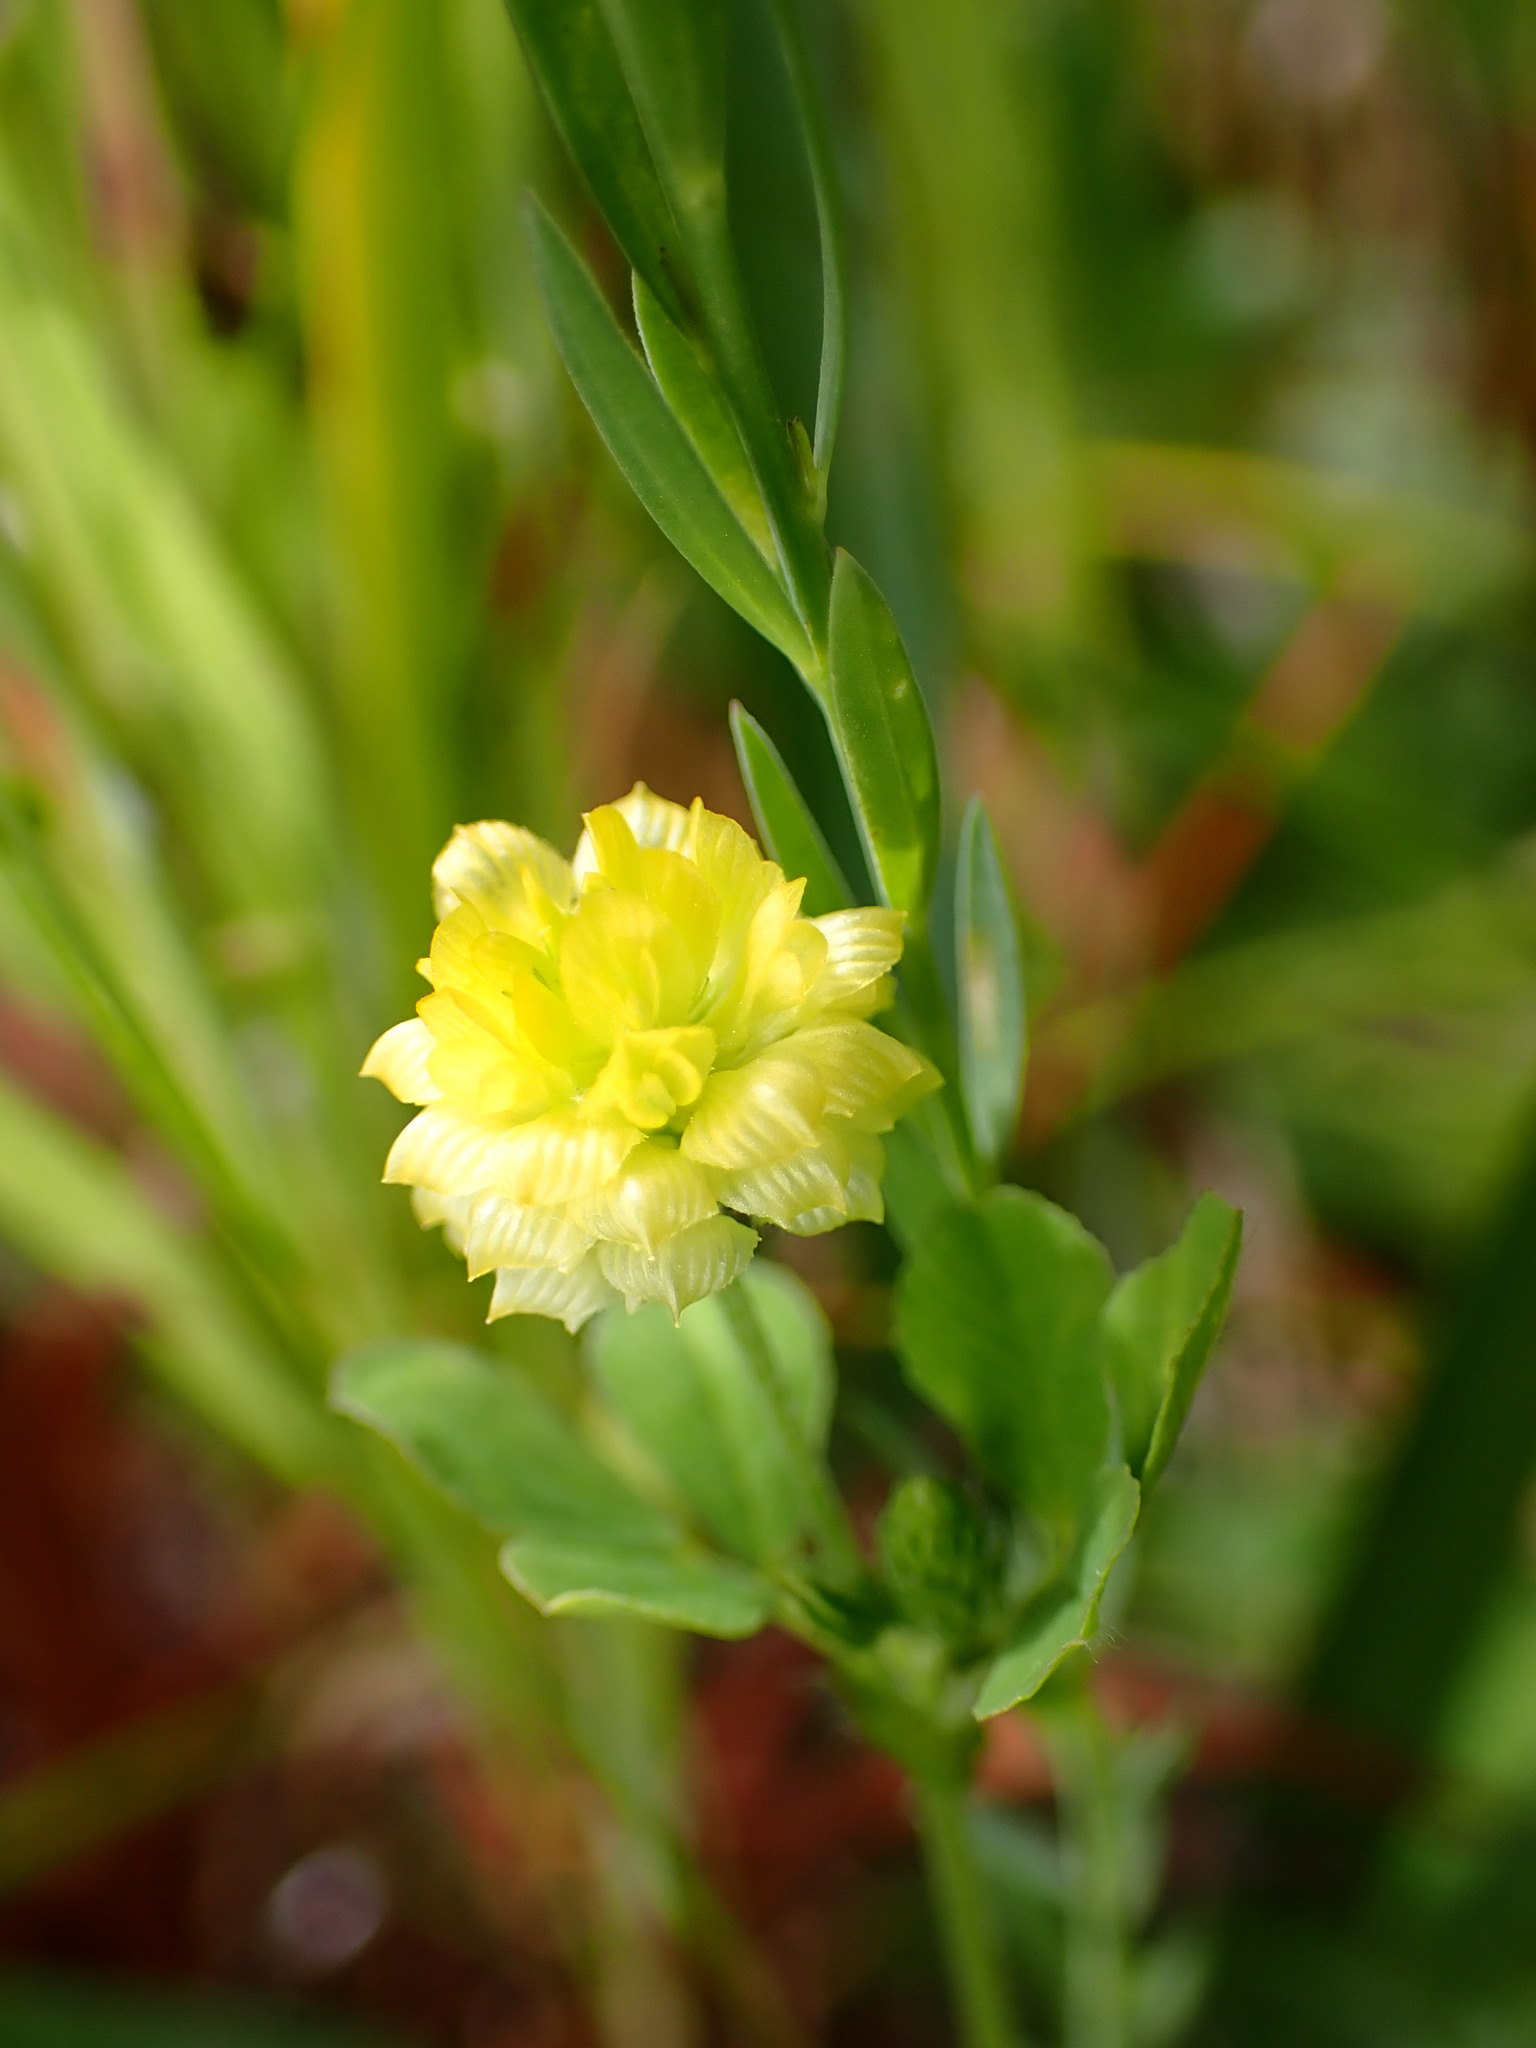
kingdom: Plantae
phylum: Tracheophyta
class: Magnoliopsida
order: Fabales
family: Fabaceae
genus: Trifolium
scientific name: Trifolium campestre
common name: Field clover
